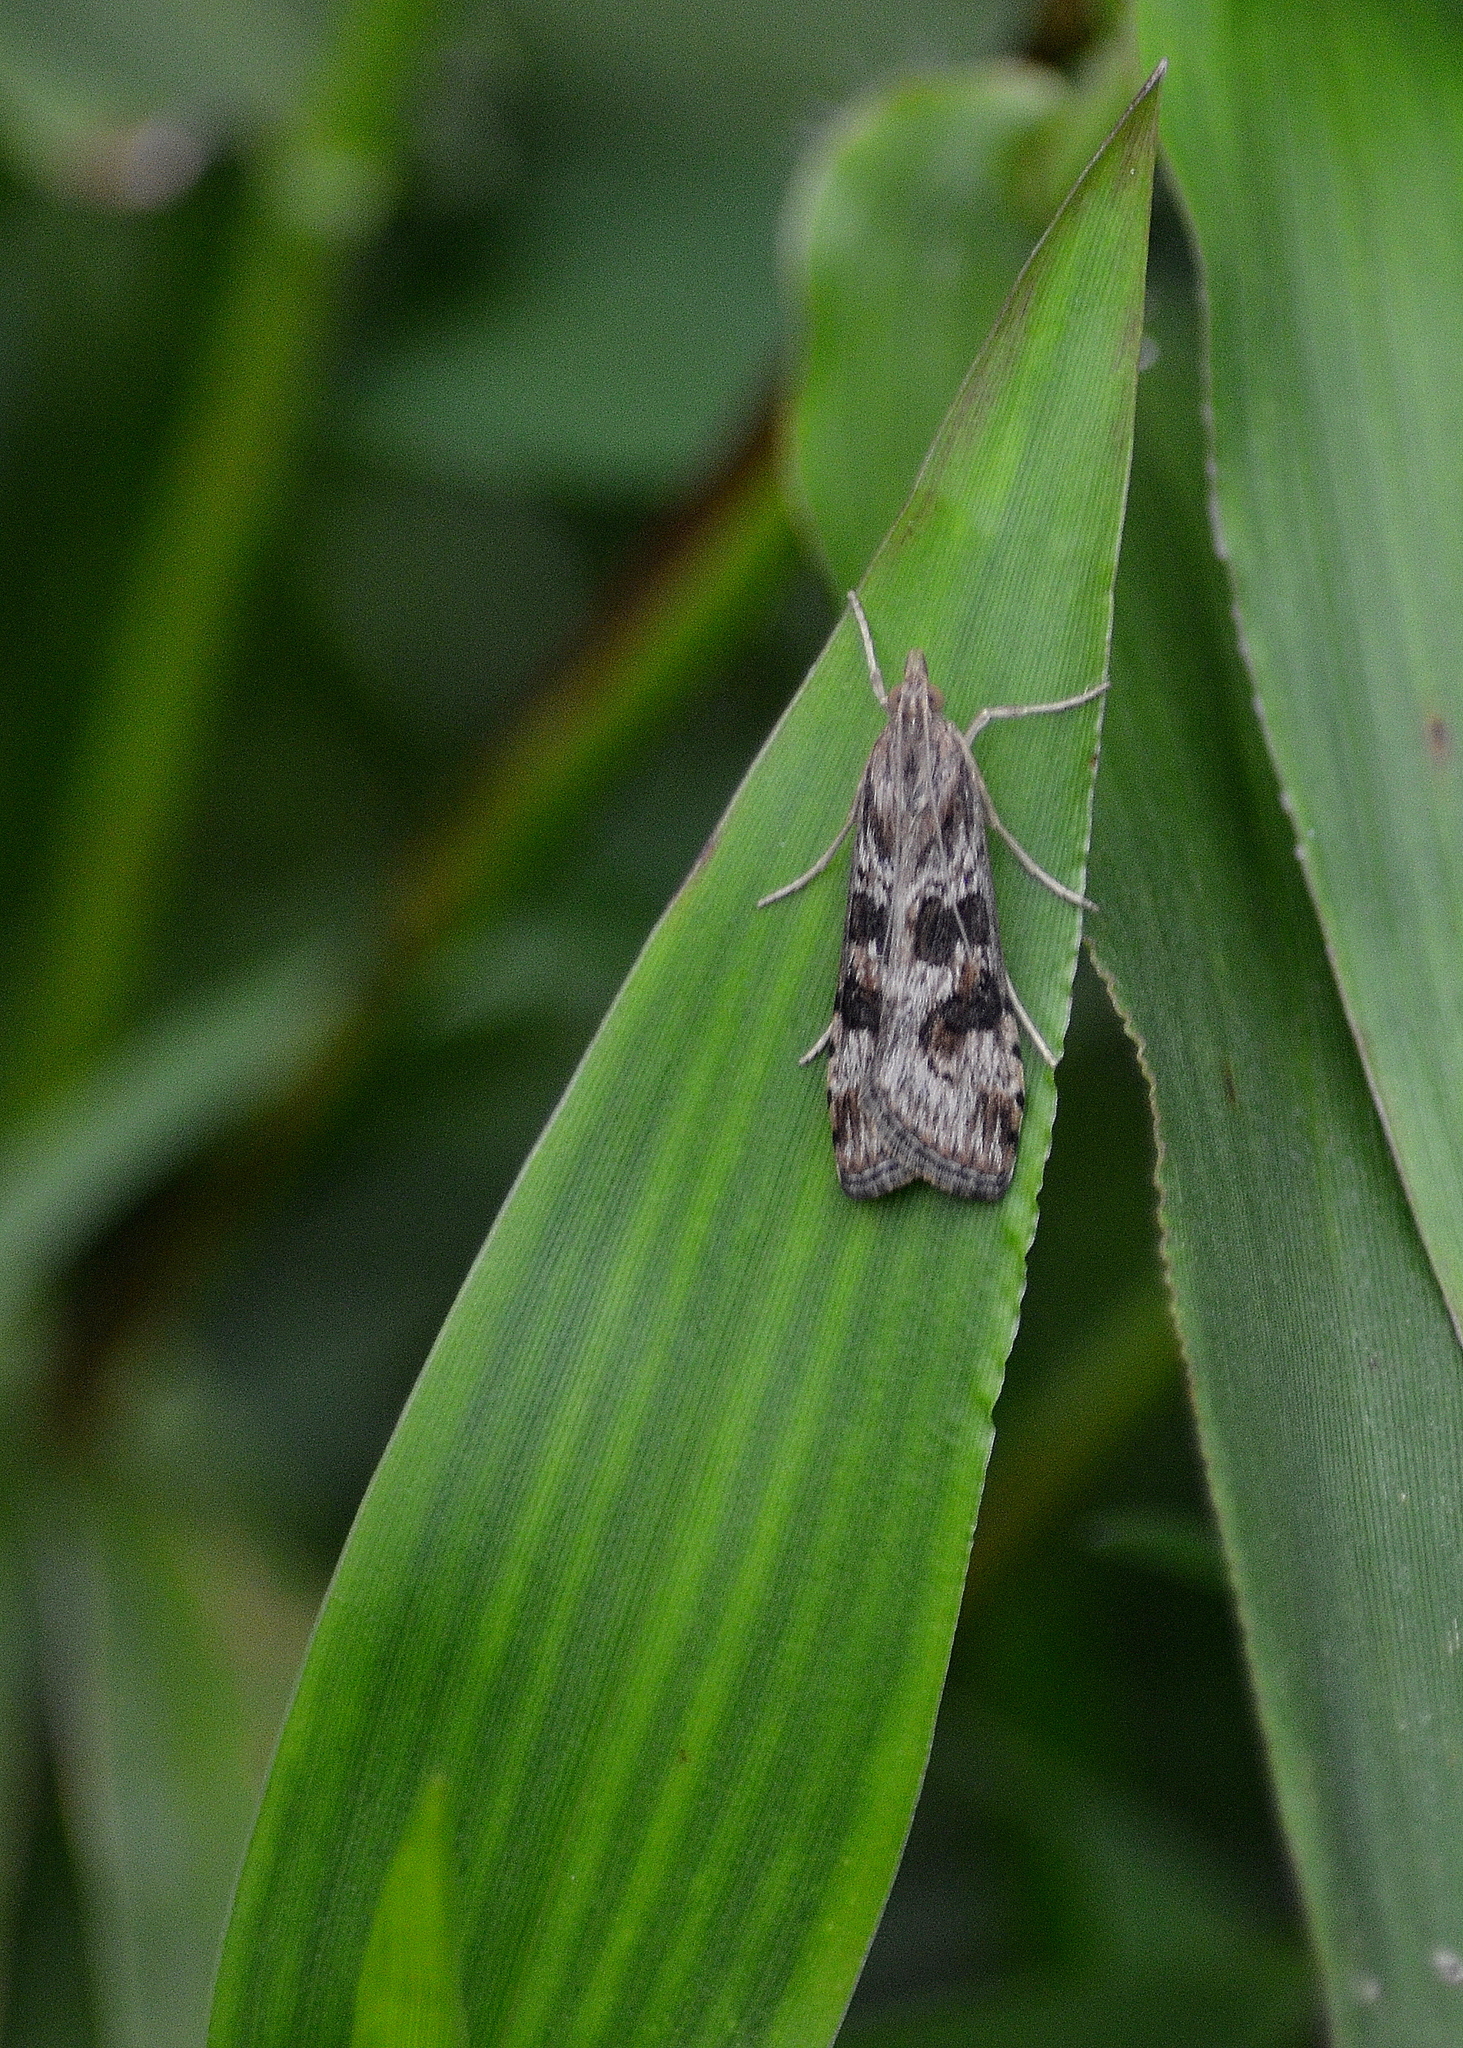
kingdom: Animalia
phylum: Arthropoda
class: Insecta
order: Lepidoptera
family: Crambidae
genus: Nomophila
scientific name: Nomophila nearctica
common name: American rush veneer
